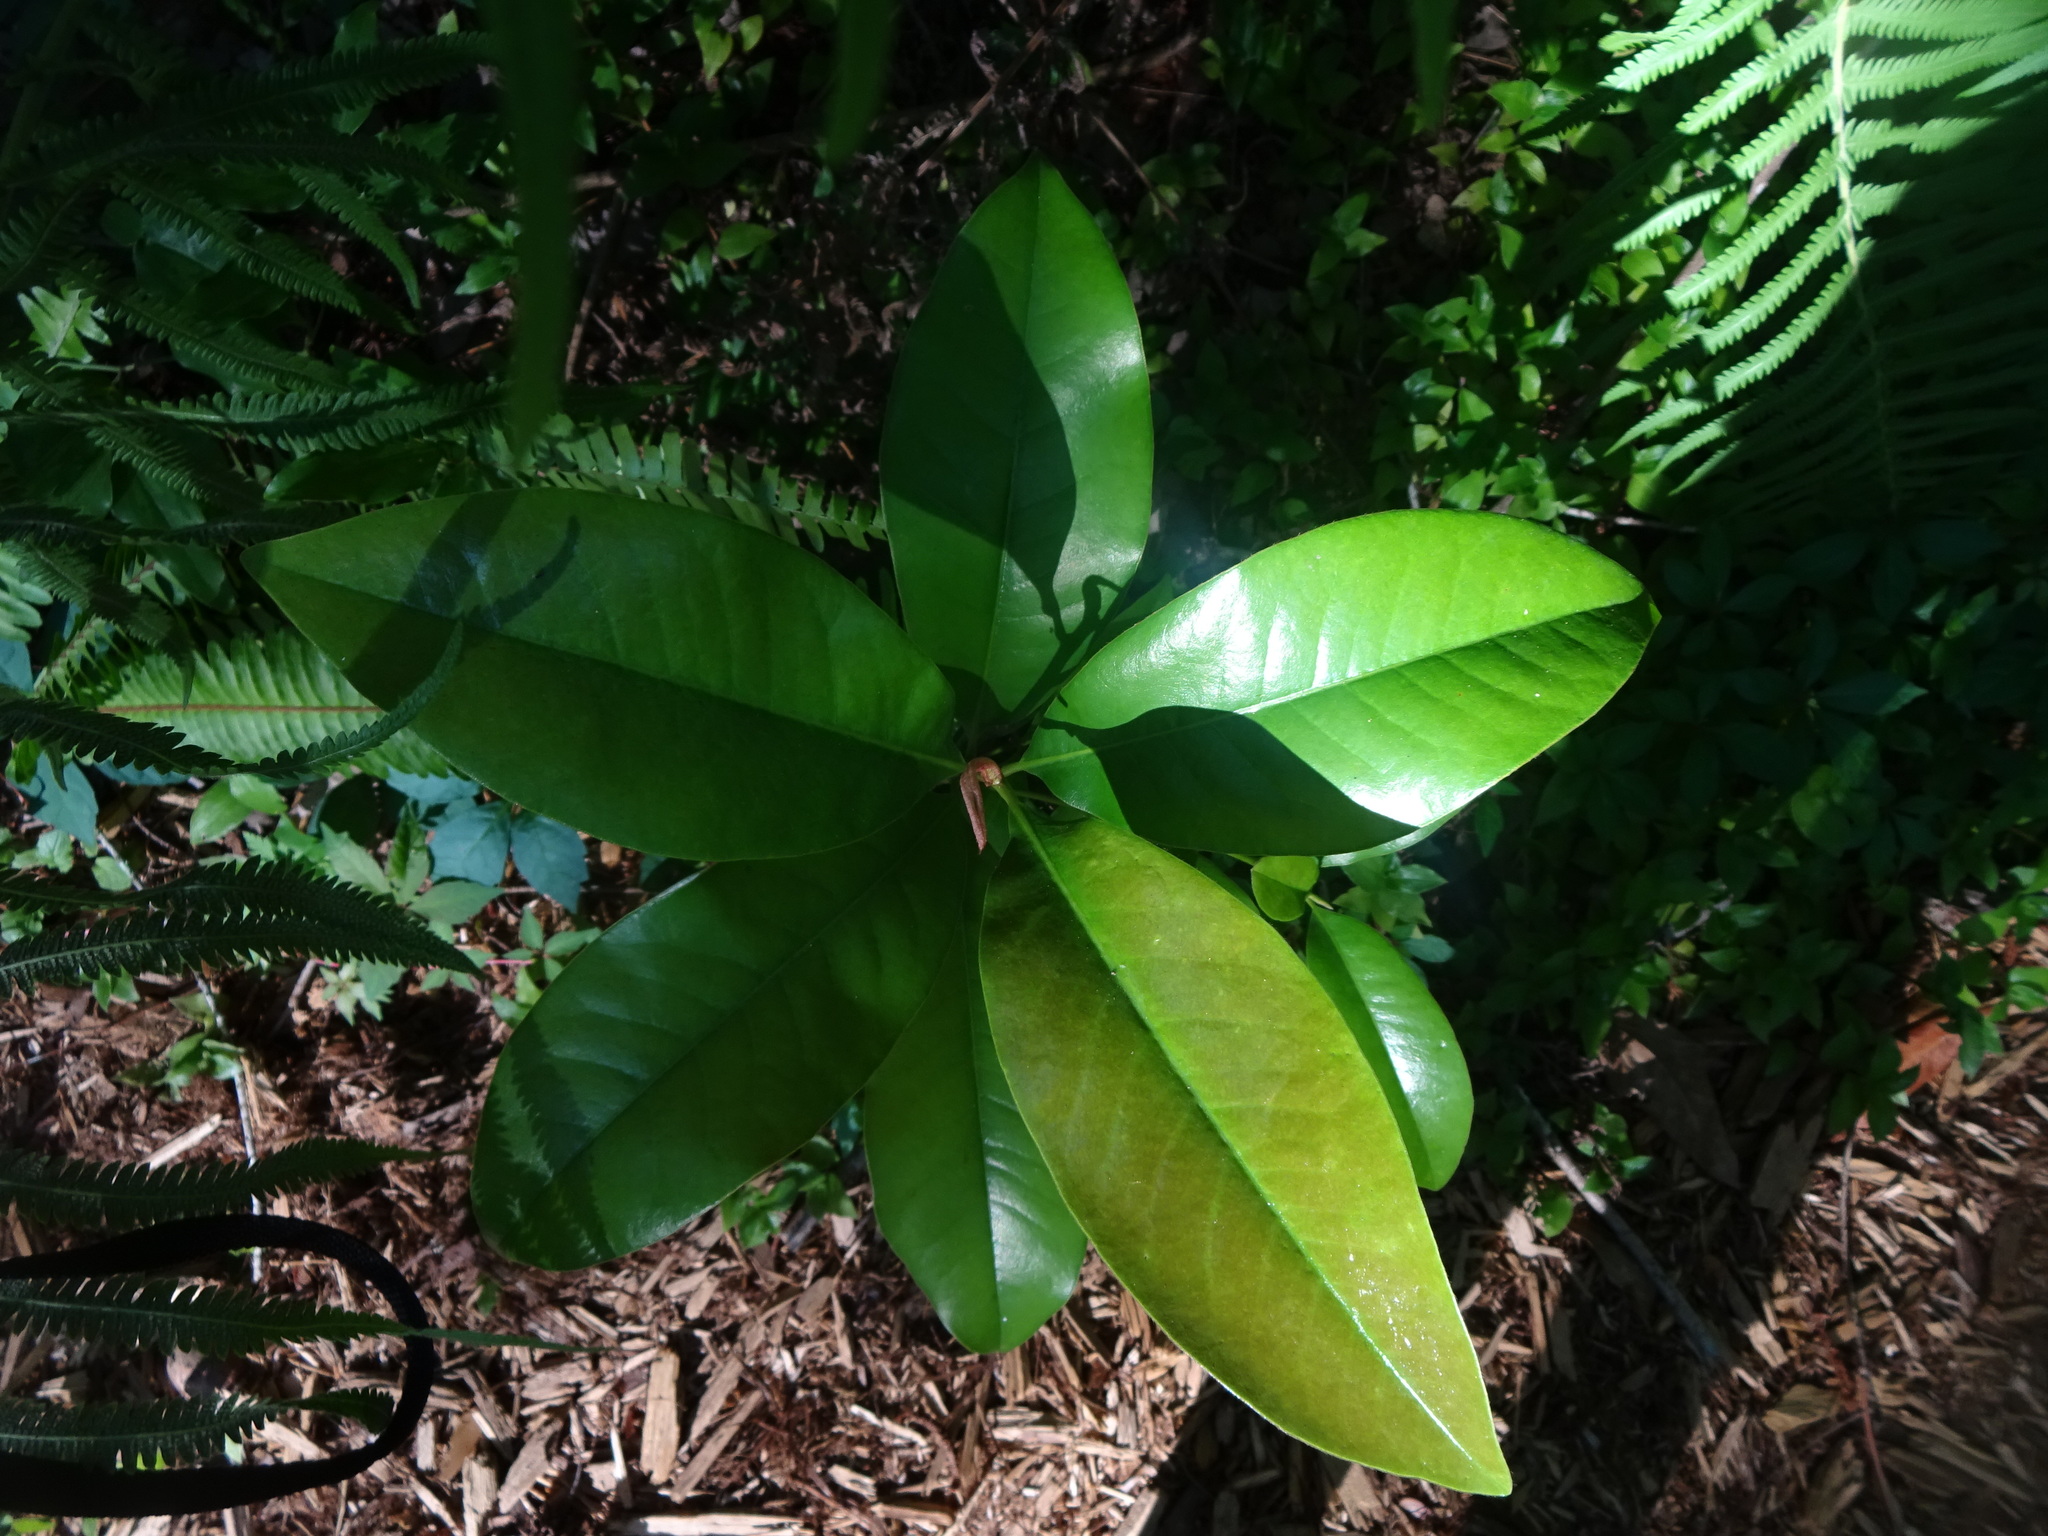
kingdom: Plantae
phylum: Tracheophyta
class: Magnoliopsida
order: Magnoliales
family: Magnoliaceae
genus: Magnolia
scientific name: Magnolia grandiflora
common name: Southern magnolia
